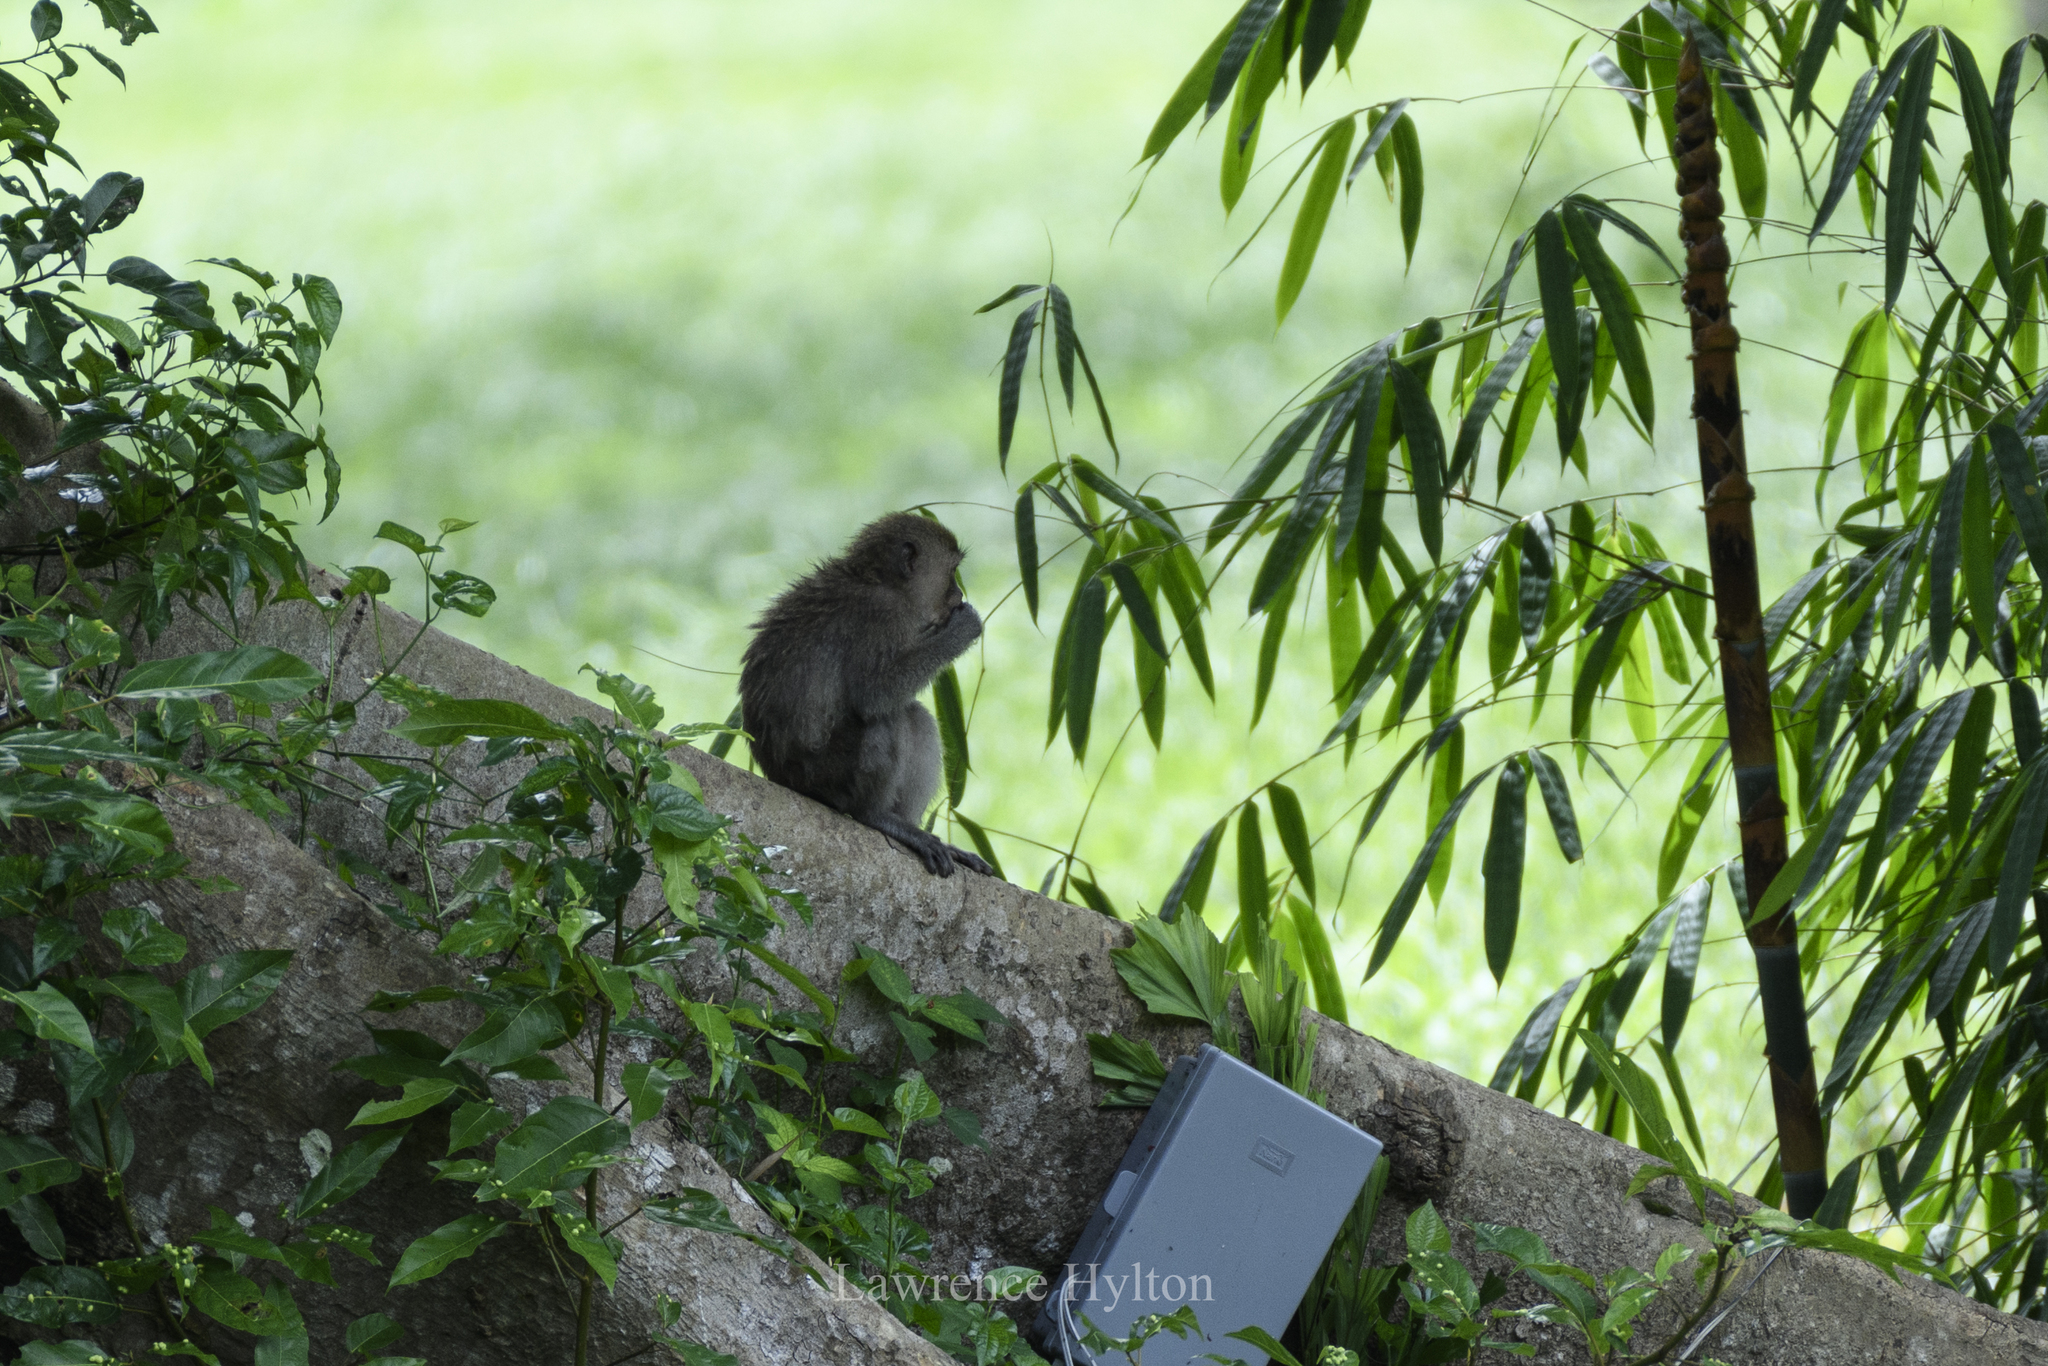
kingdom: Animalia
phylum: Chordata
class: Mammalia
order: Primates
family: Cercopithecidae
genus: Macaca
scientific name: Macaca fascicularis
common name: Crab-eating macaque
